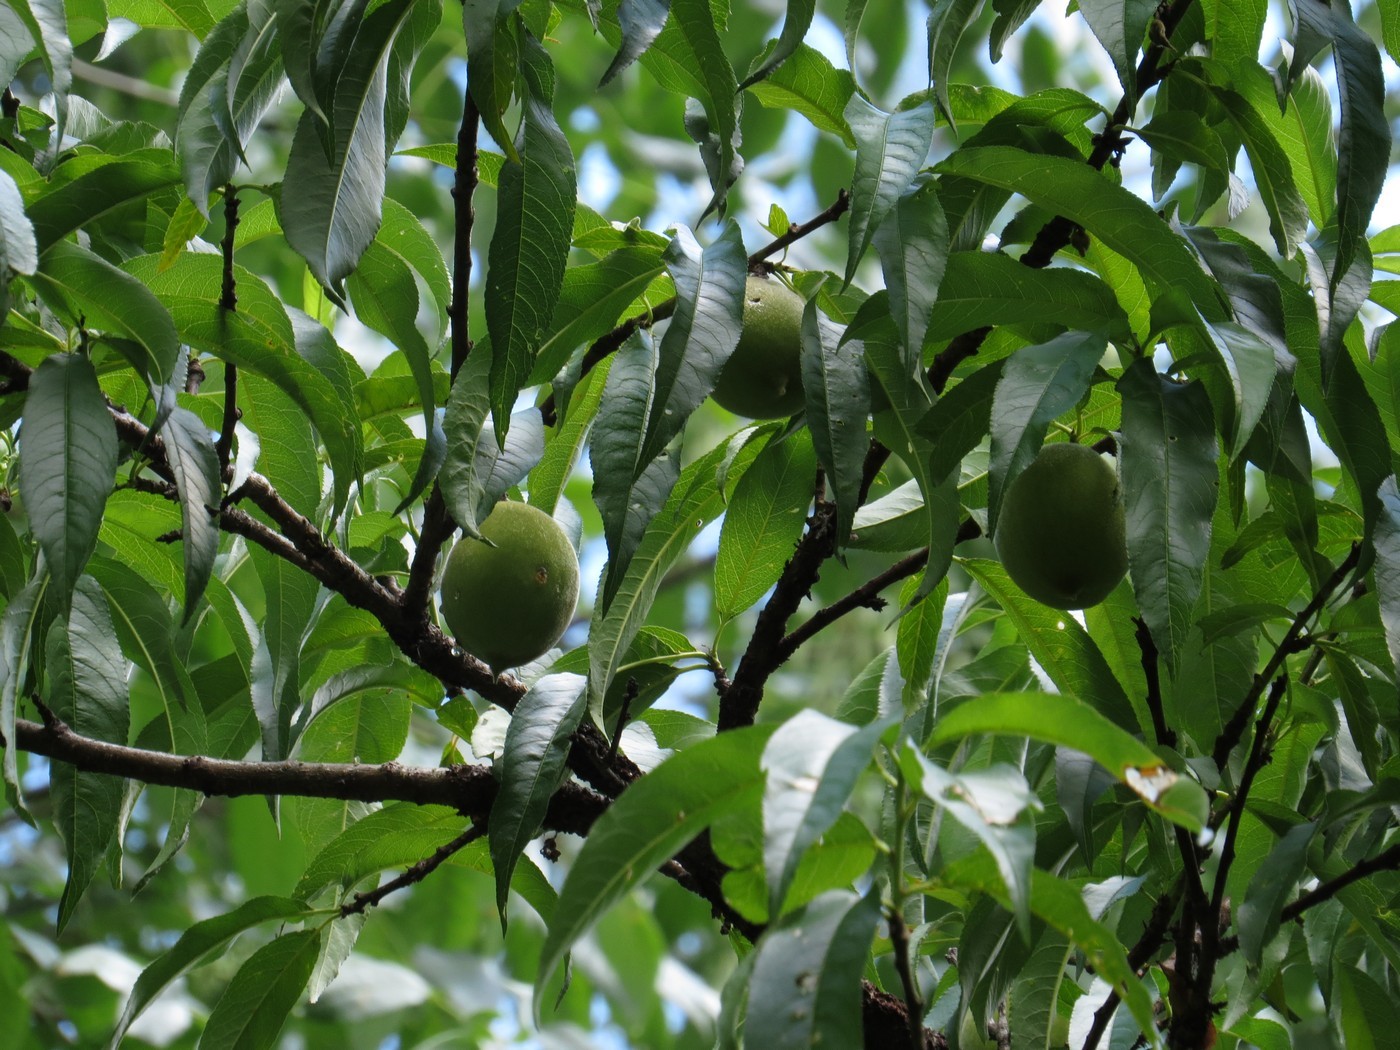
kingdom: Plantae
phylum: Tracheophyta
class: Magnoliopsida
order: Rosales
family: Rosaceae
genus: Prunus
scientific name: Prunus persica
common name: Peach
